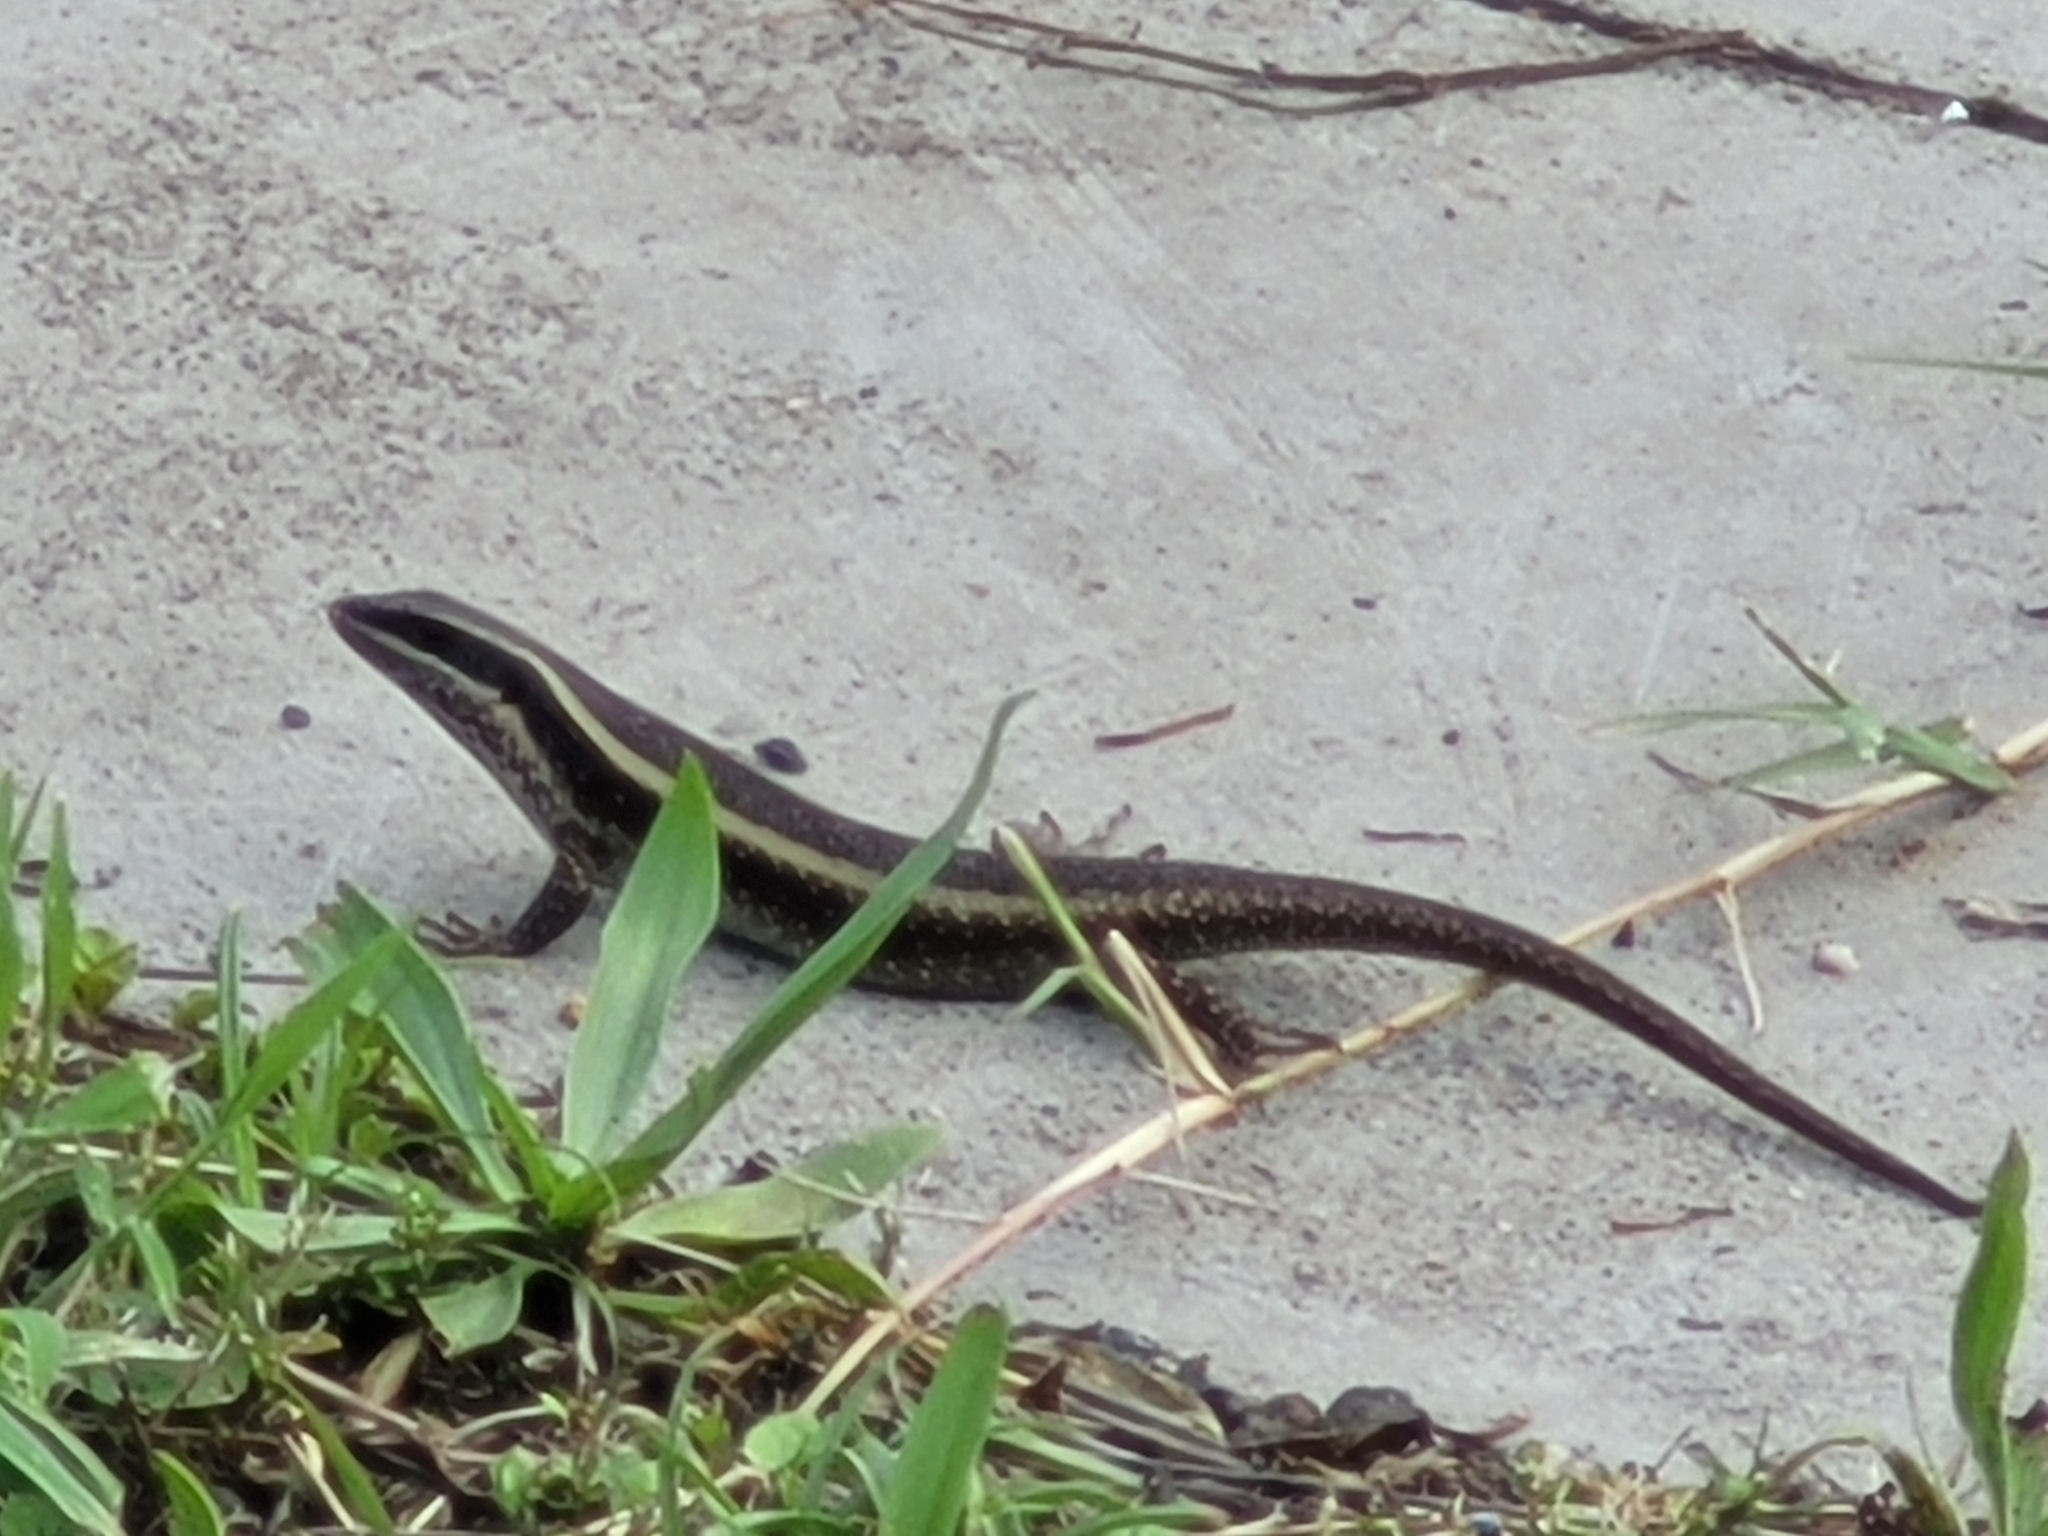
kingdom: Animalia
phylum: Chordata
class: Squamata
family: Scincidae
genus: Trachylepis
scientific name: Trachylepis striata
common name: African striped mabuya
